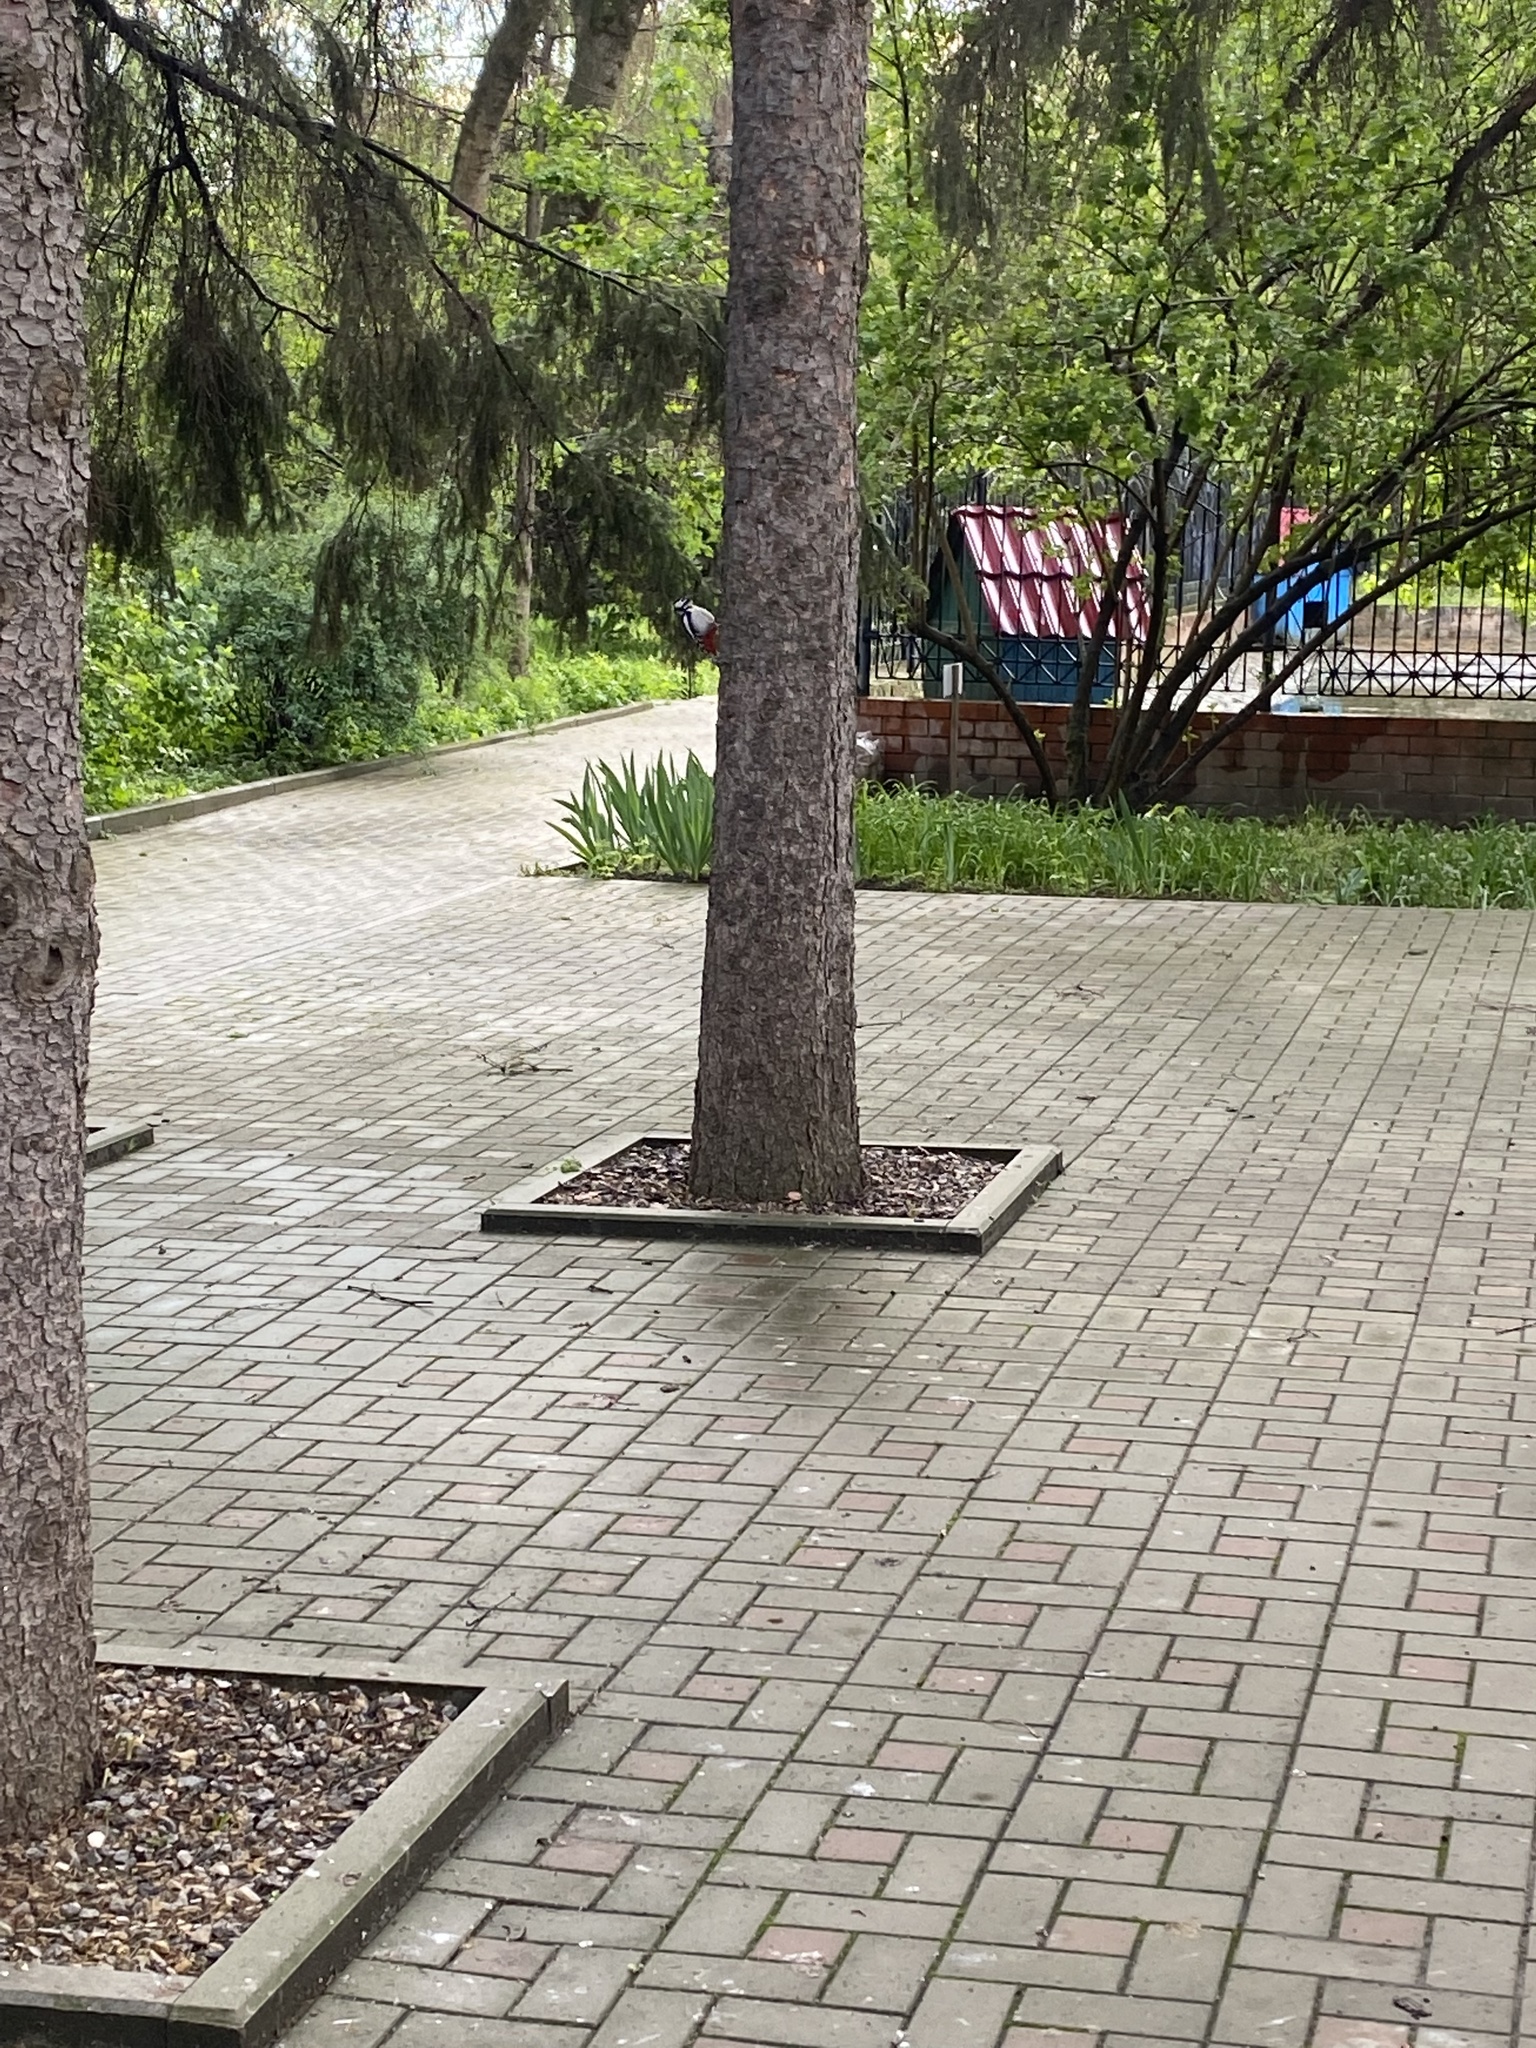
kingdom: Animalia
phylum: Chordata
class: Aves
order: Piciformes
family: Picidae
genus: Dendrocopos
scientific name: Dendrocopos major
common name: Great spotted woodpecker
